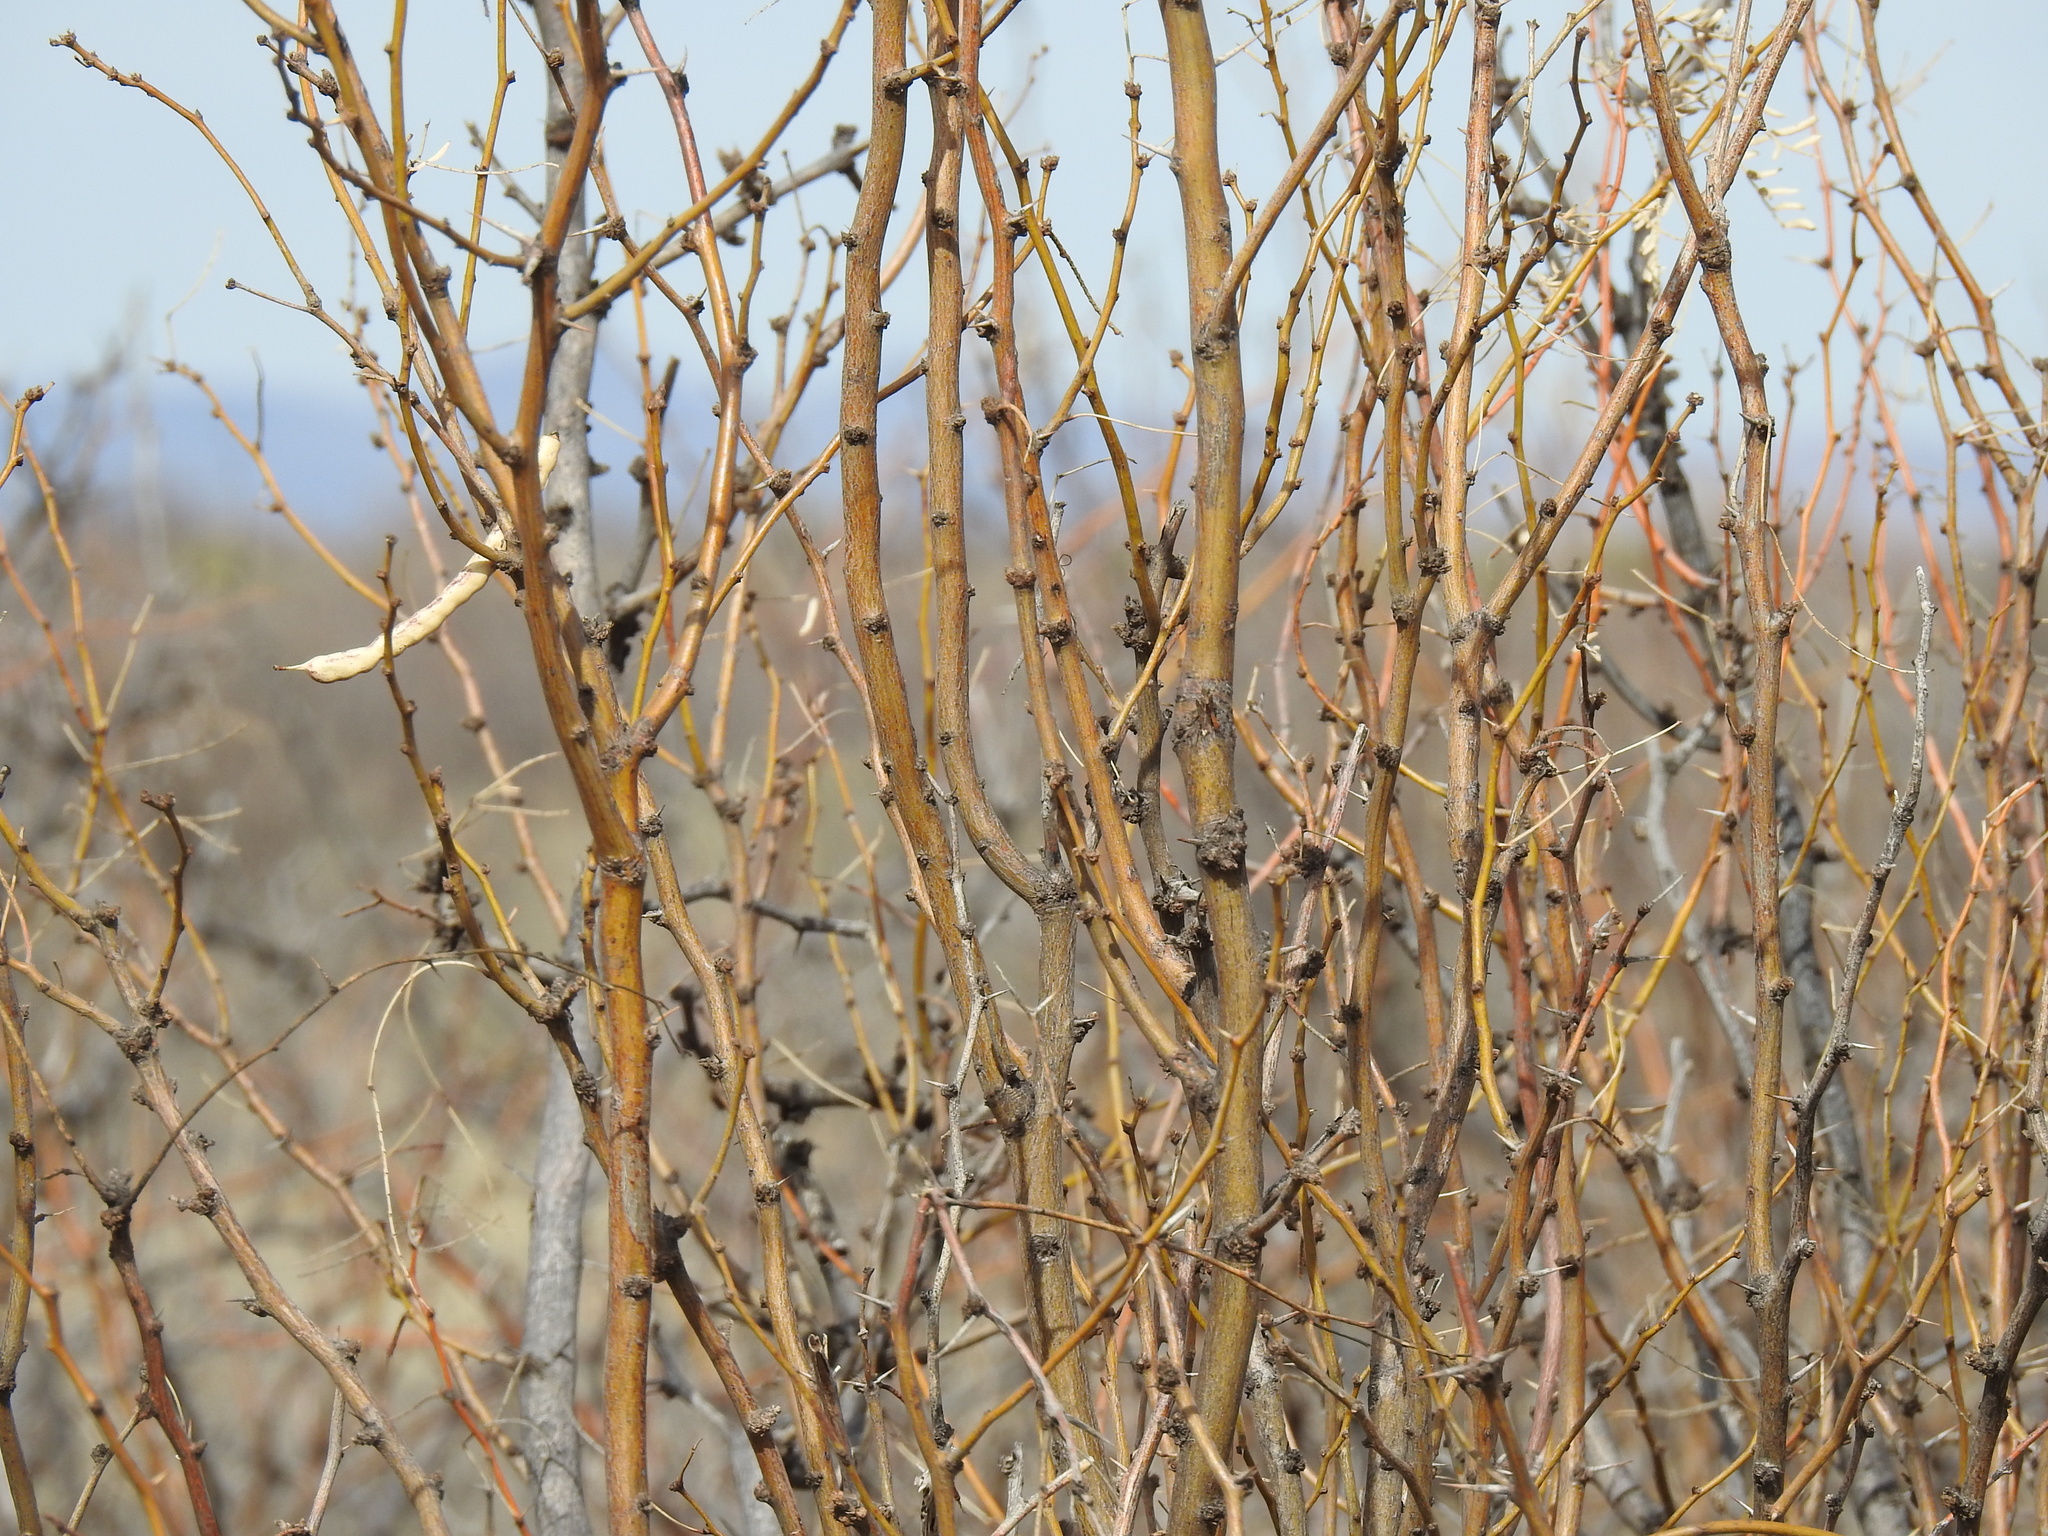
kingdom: Plantae
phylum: Tracheophyta
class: Magnoliopsida
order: Fabales
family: Fabaceae
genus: Prosopis
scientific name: Prosopis glandulosa
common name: Honey mesquite
